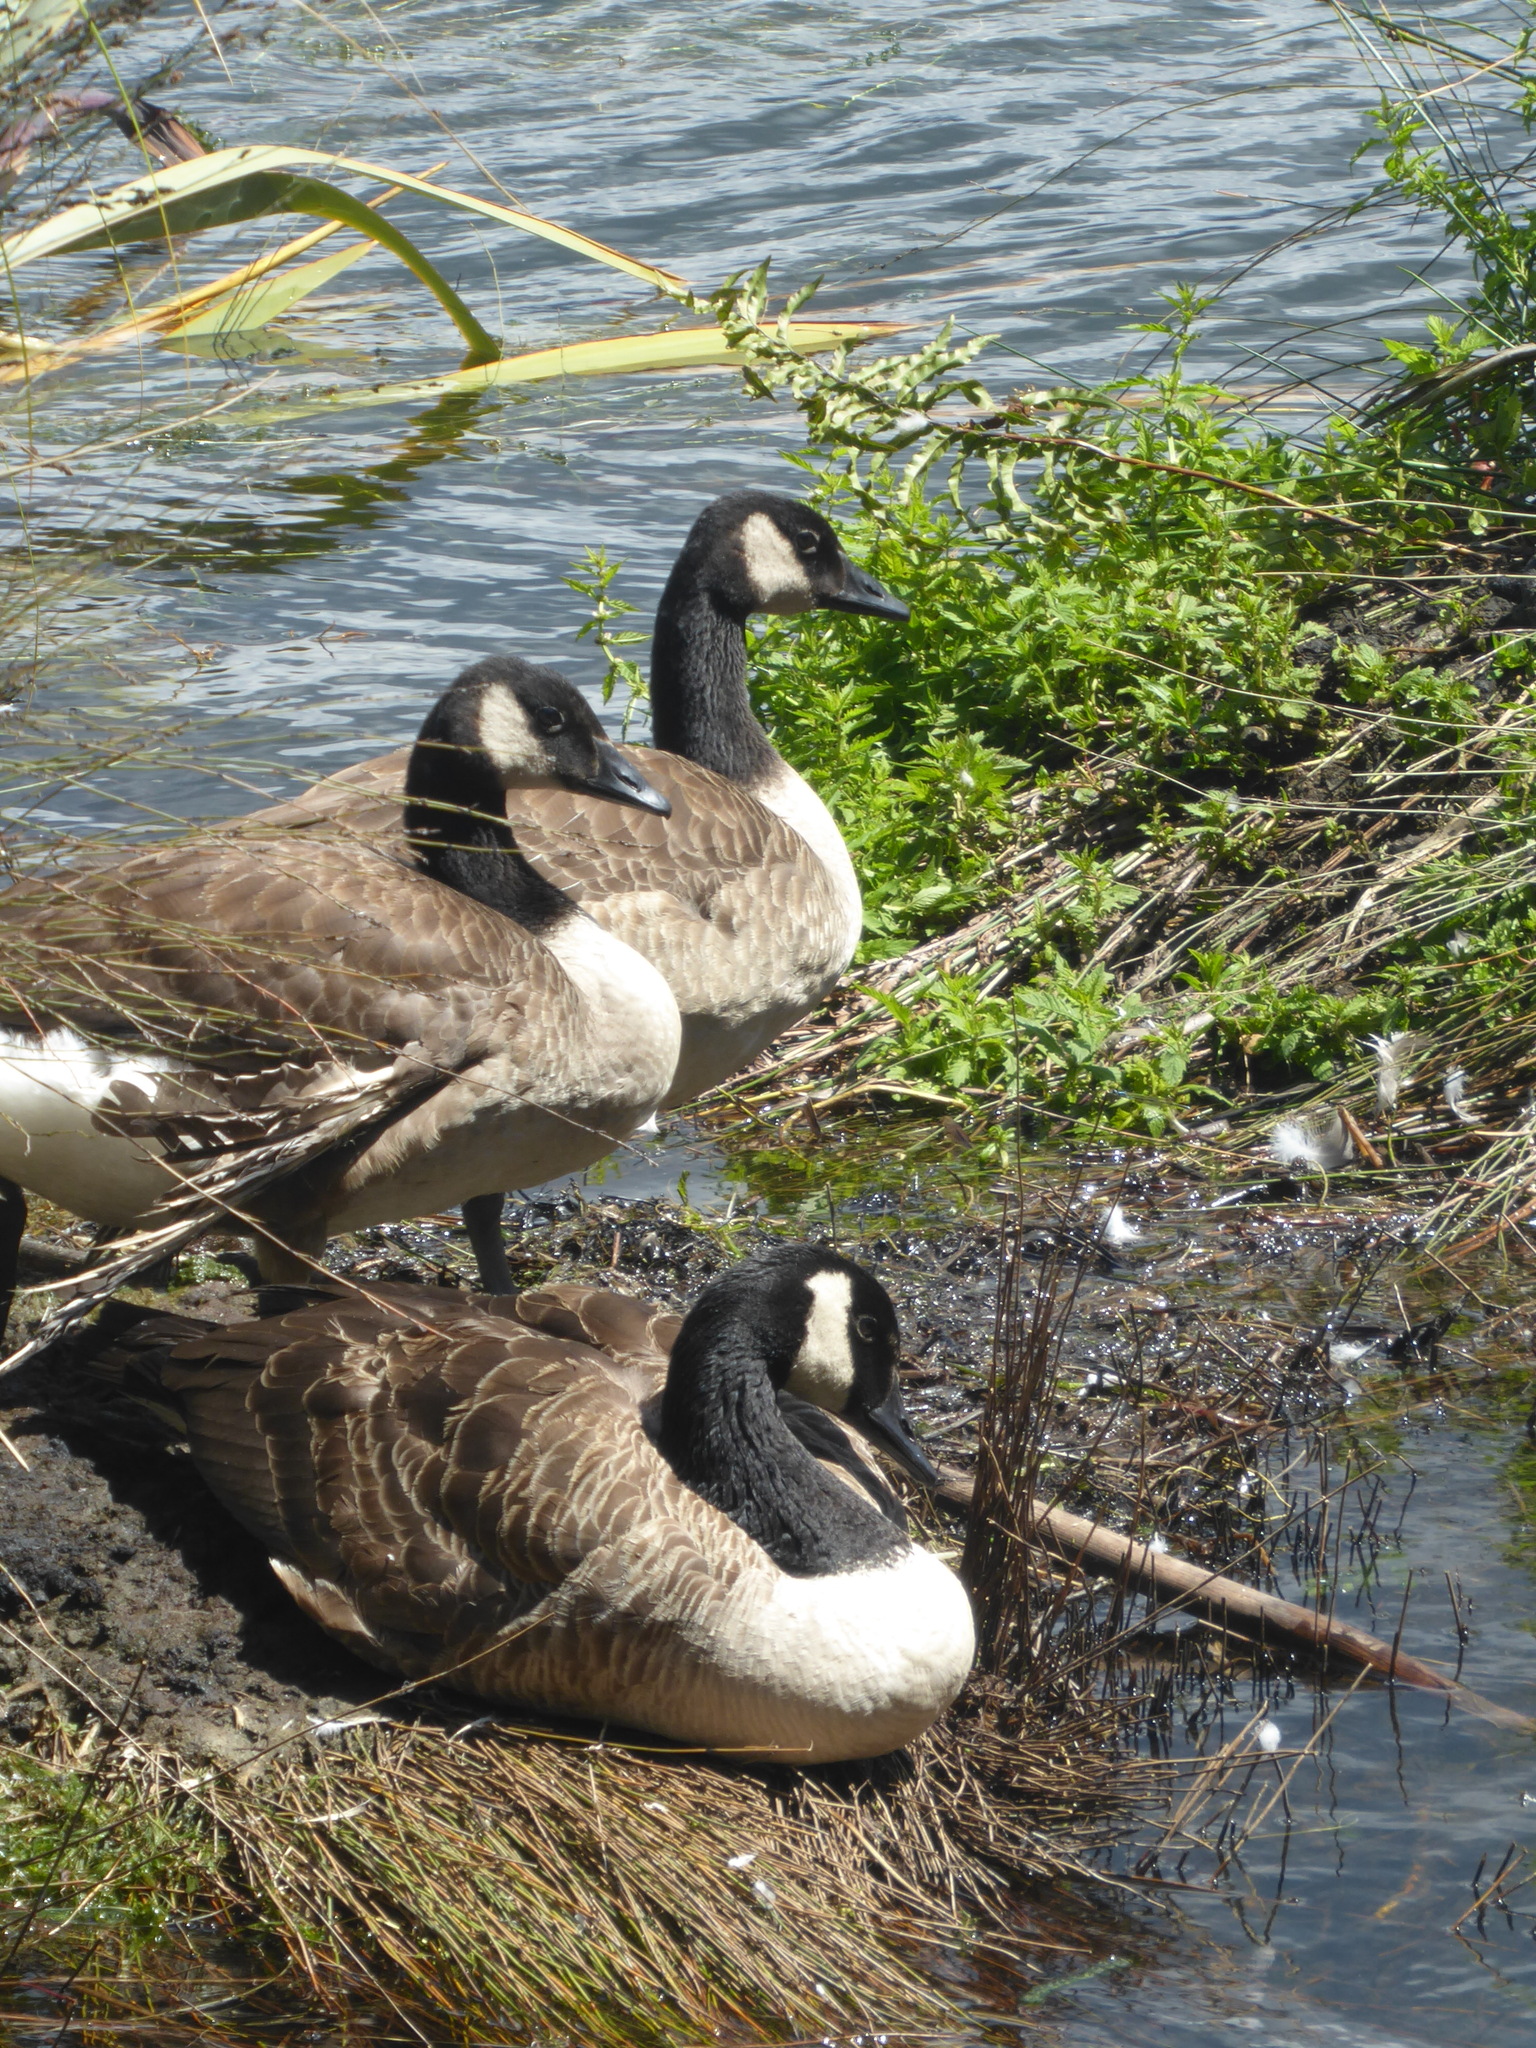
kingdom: Animalia
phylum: Chordata
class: Aves
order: Anseriformes
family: Anatidae
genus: Branta
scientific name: Branta canadensis
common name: Canada goose
